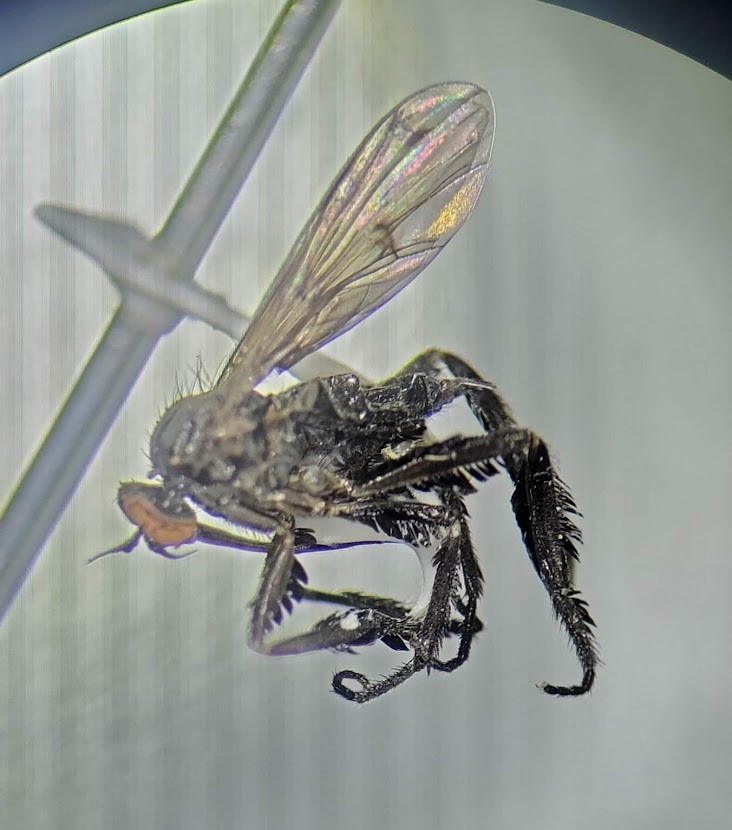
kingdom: Animalia
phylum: Arthropoda
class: Insecta
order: Diptera
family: Empididae
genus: Empis
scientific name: Empis clausa
